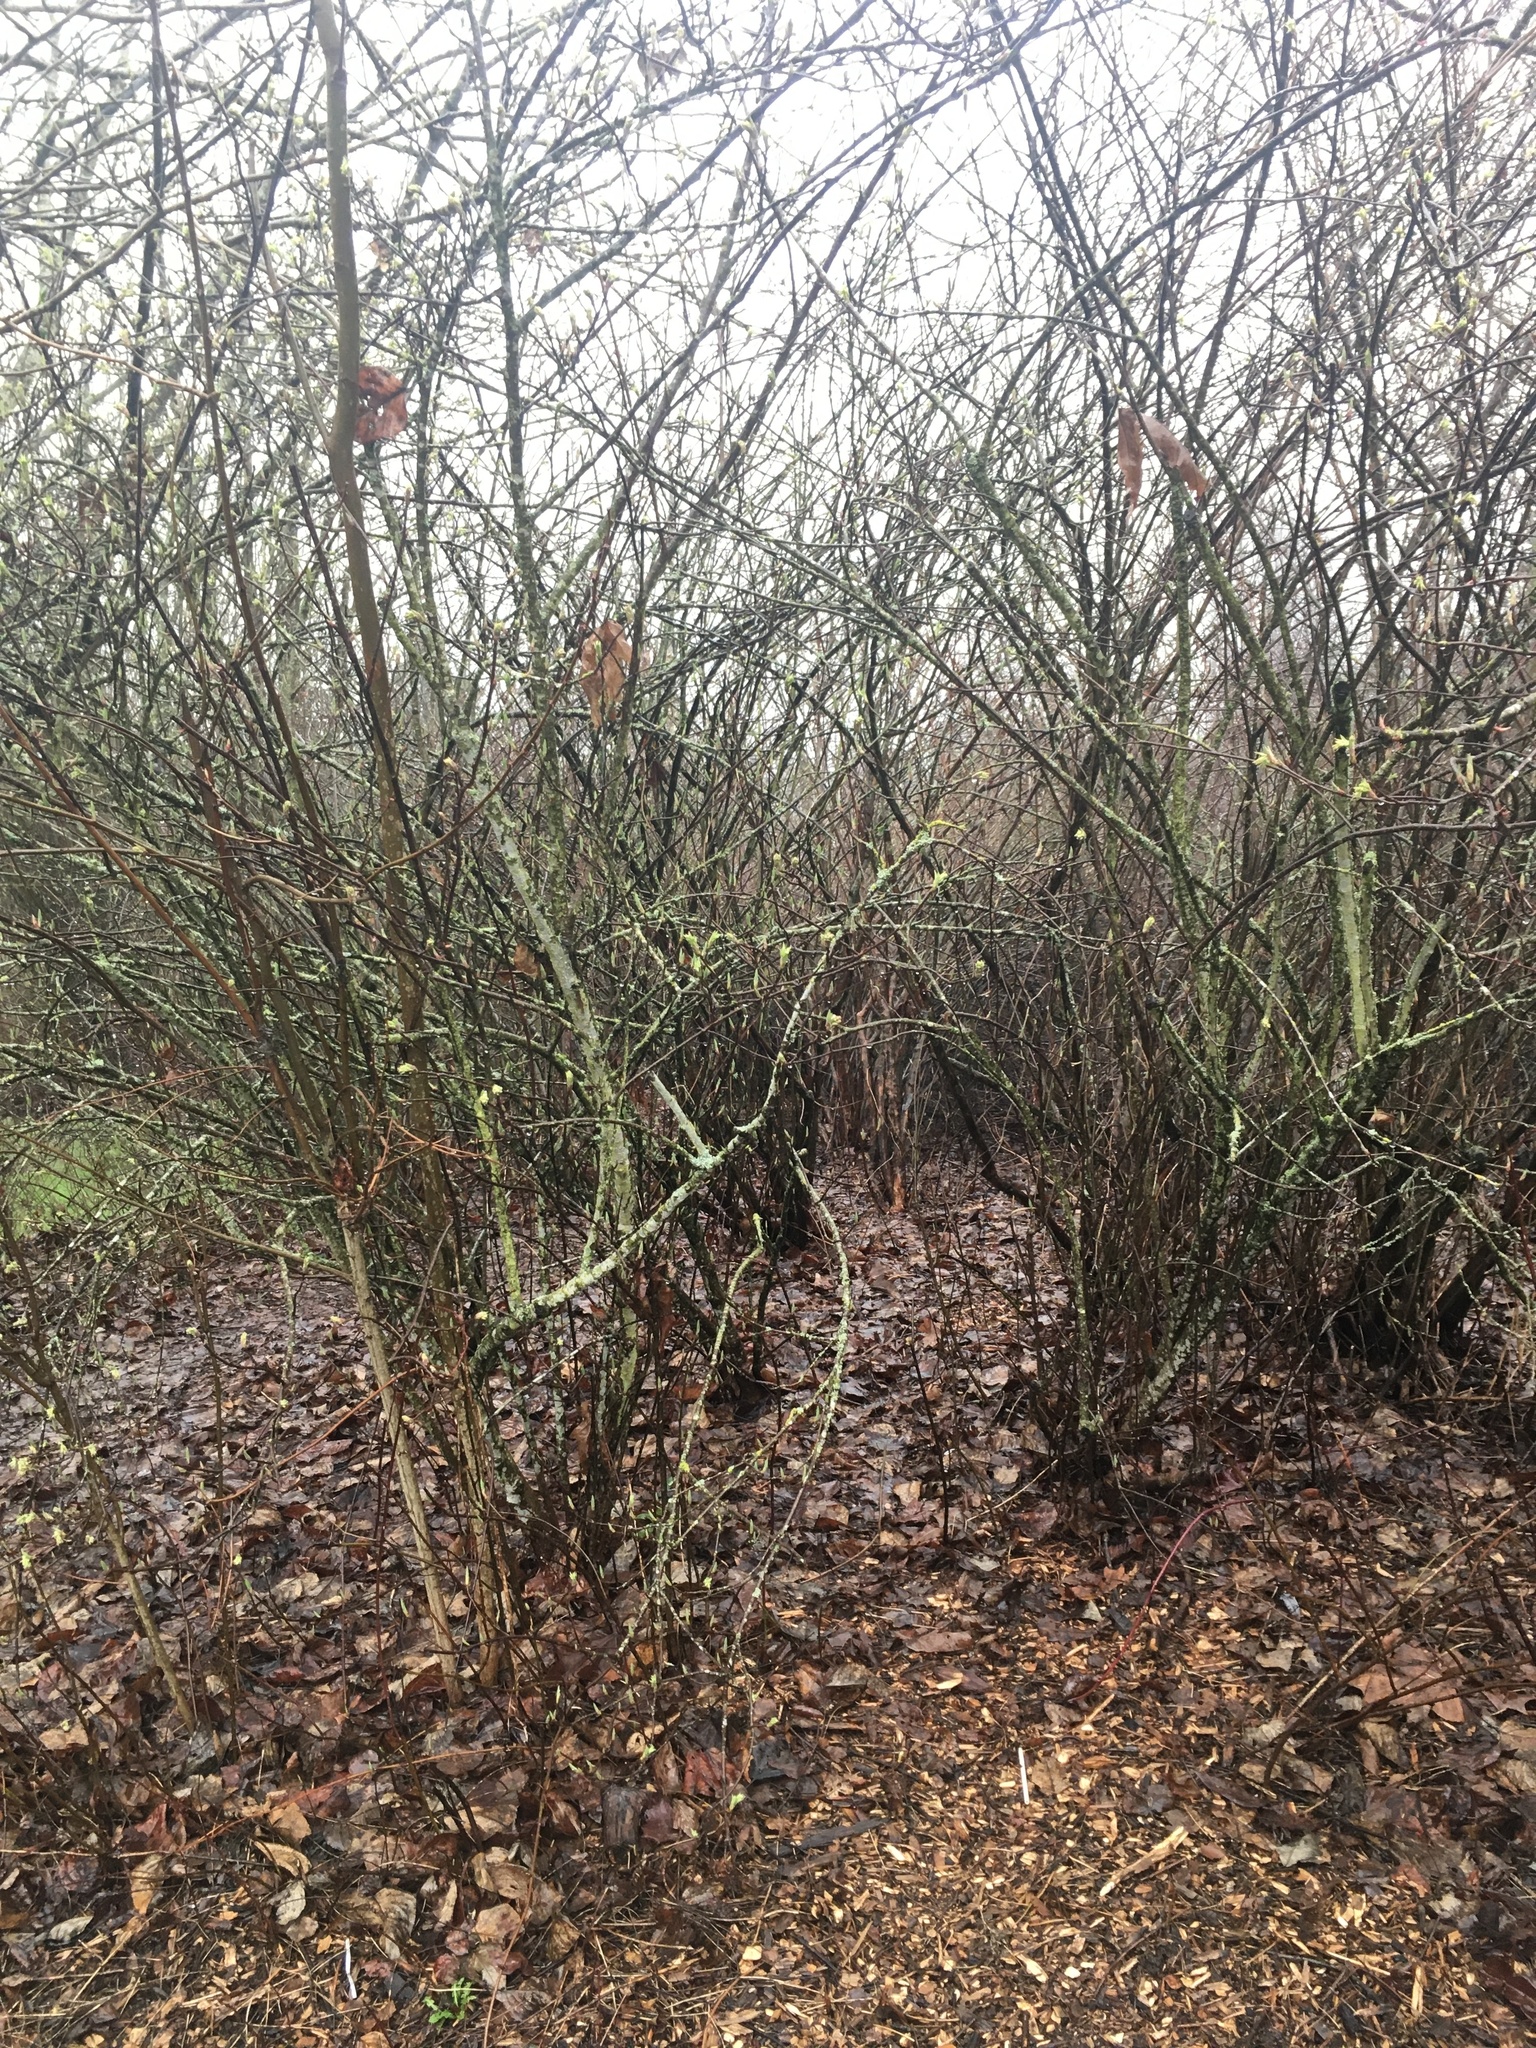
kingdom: Plantae
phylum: Tracheophyta
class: Magnoliopsida
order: Rosales
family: Rosaceae
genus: Oemleria
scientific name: Oemleria cerasiformis
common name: Osoberry
